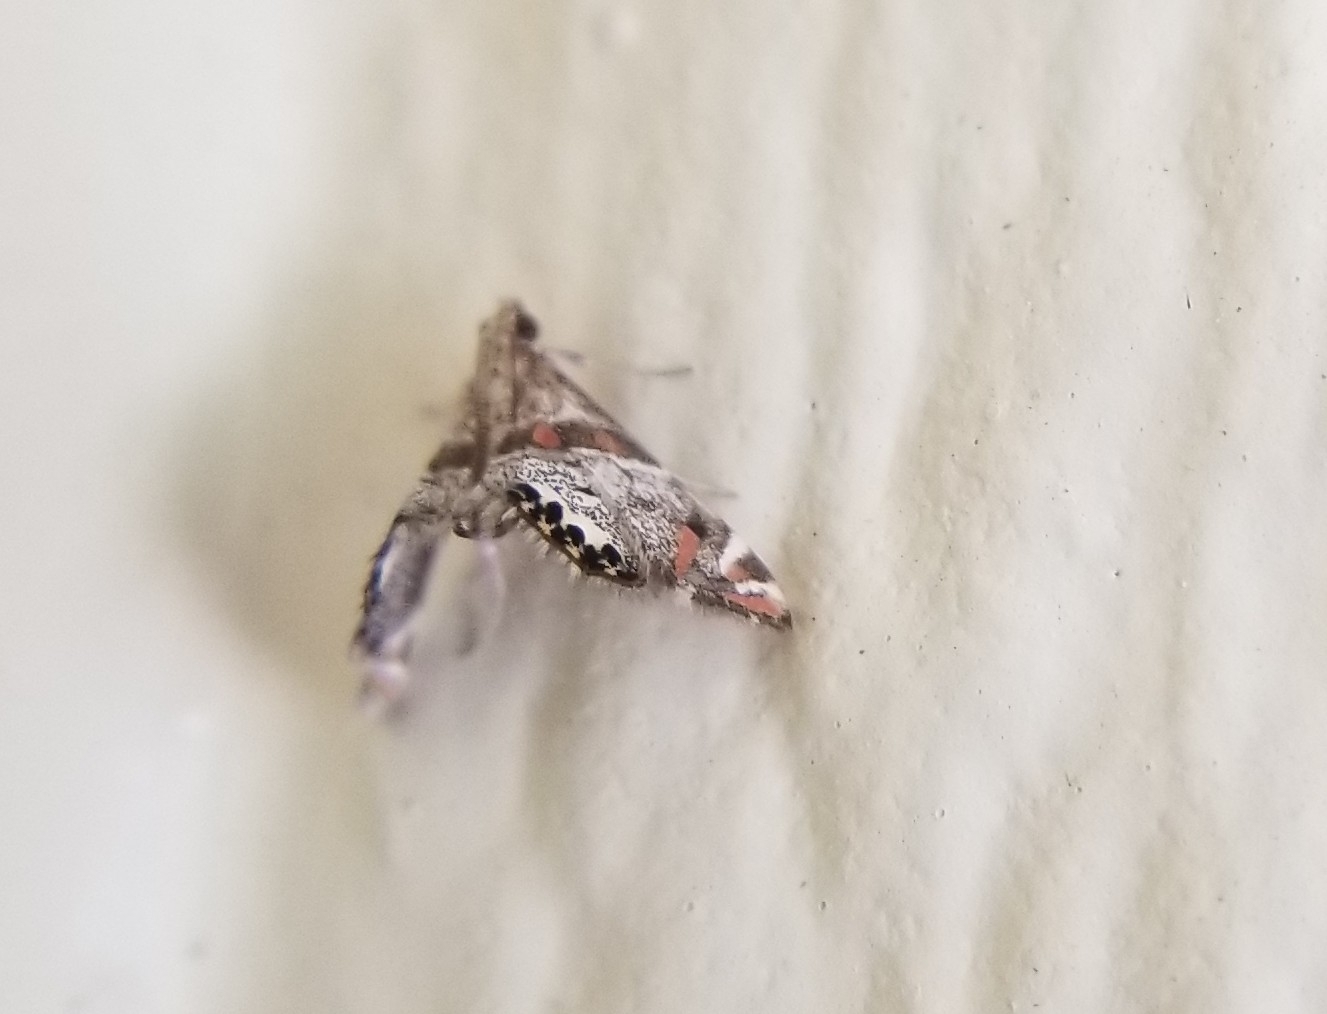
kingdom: Animalia
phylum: Arthropoda
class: Insecta
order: Lepidoptera
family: Crambidae
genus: Petrophila
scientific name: Petrophila jaliscalis
